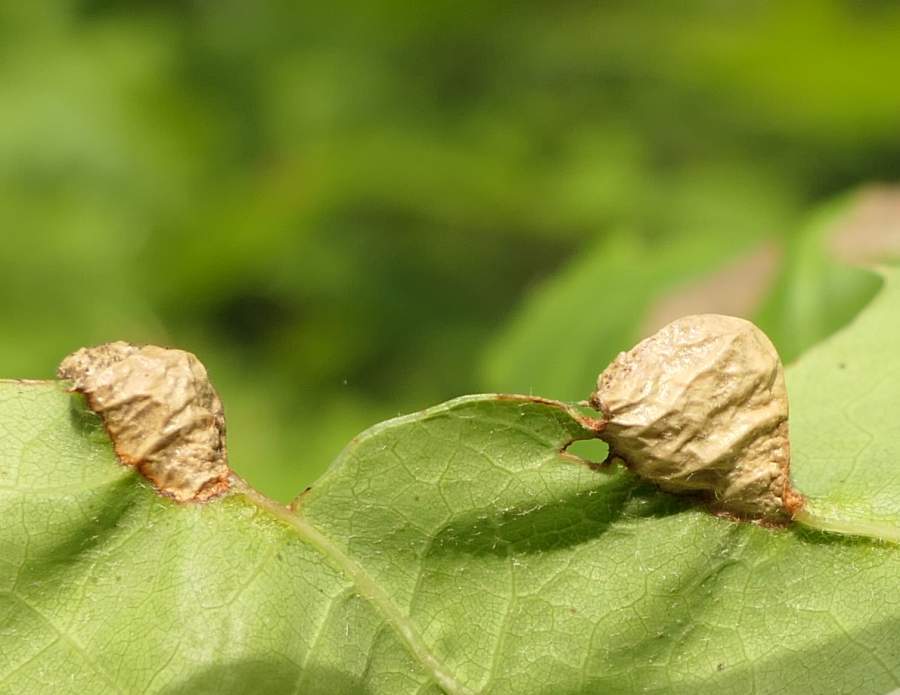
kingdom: Animalia
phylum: Arthropoda
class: Insecta
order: Diptera
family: Cecidomyiidae
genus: Macrodiplosis
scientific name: Macrodiplosis majalis
